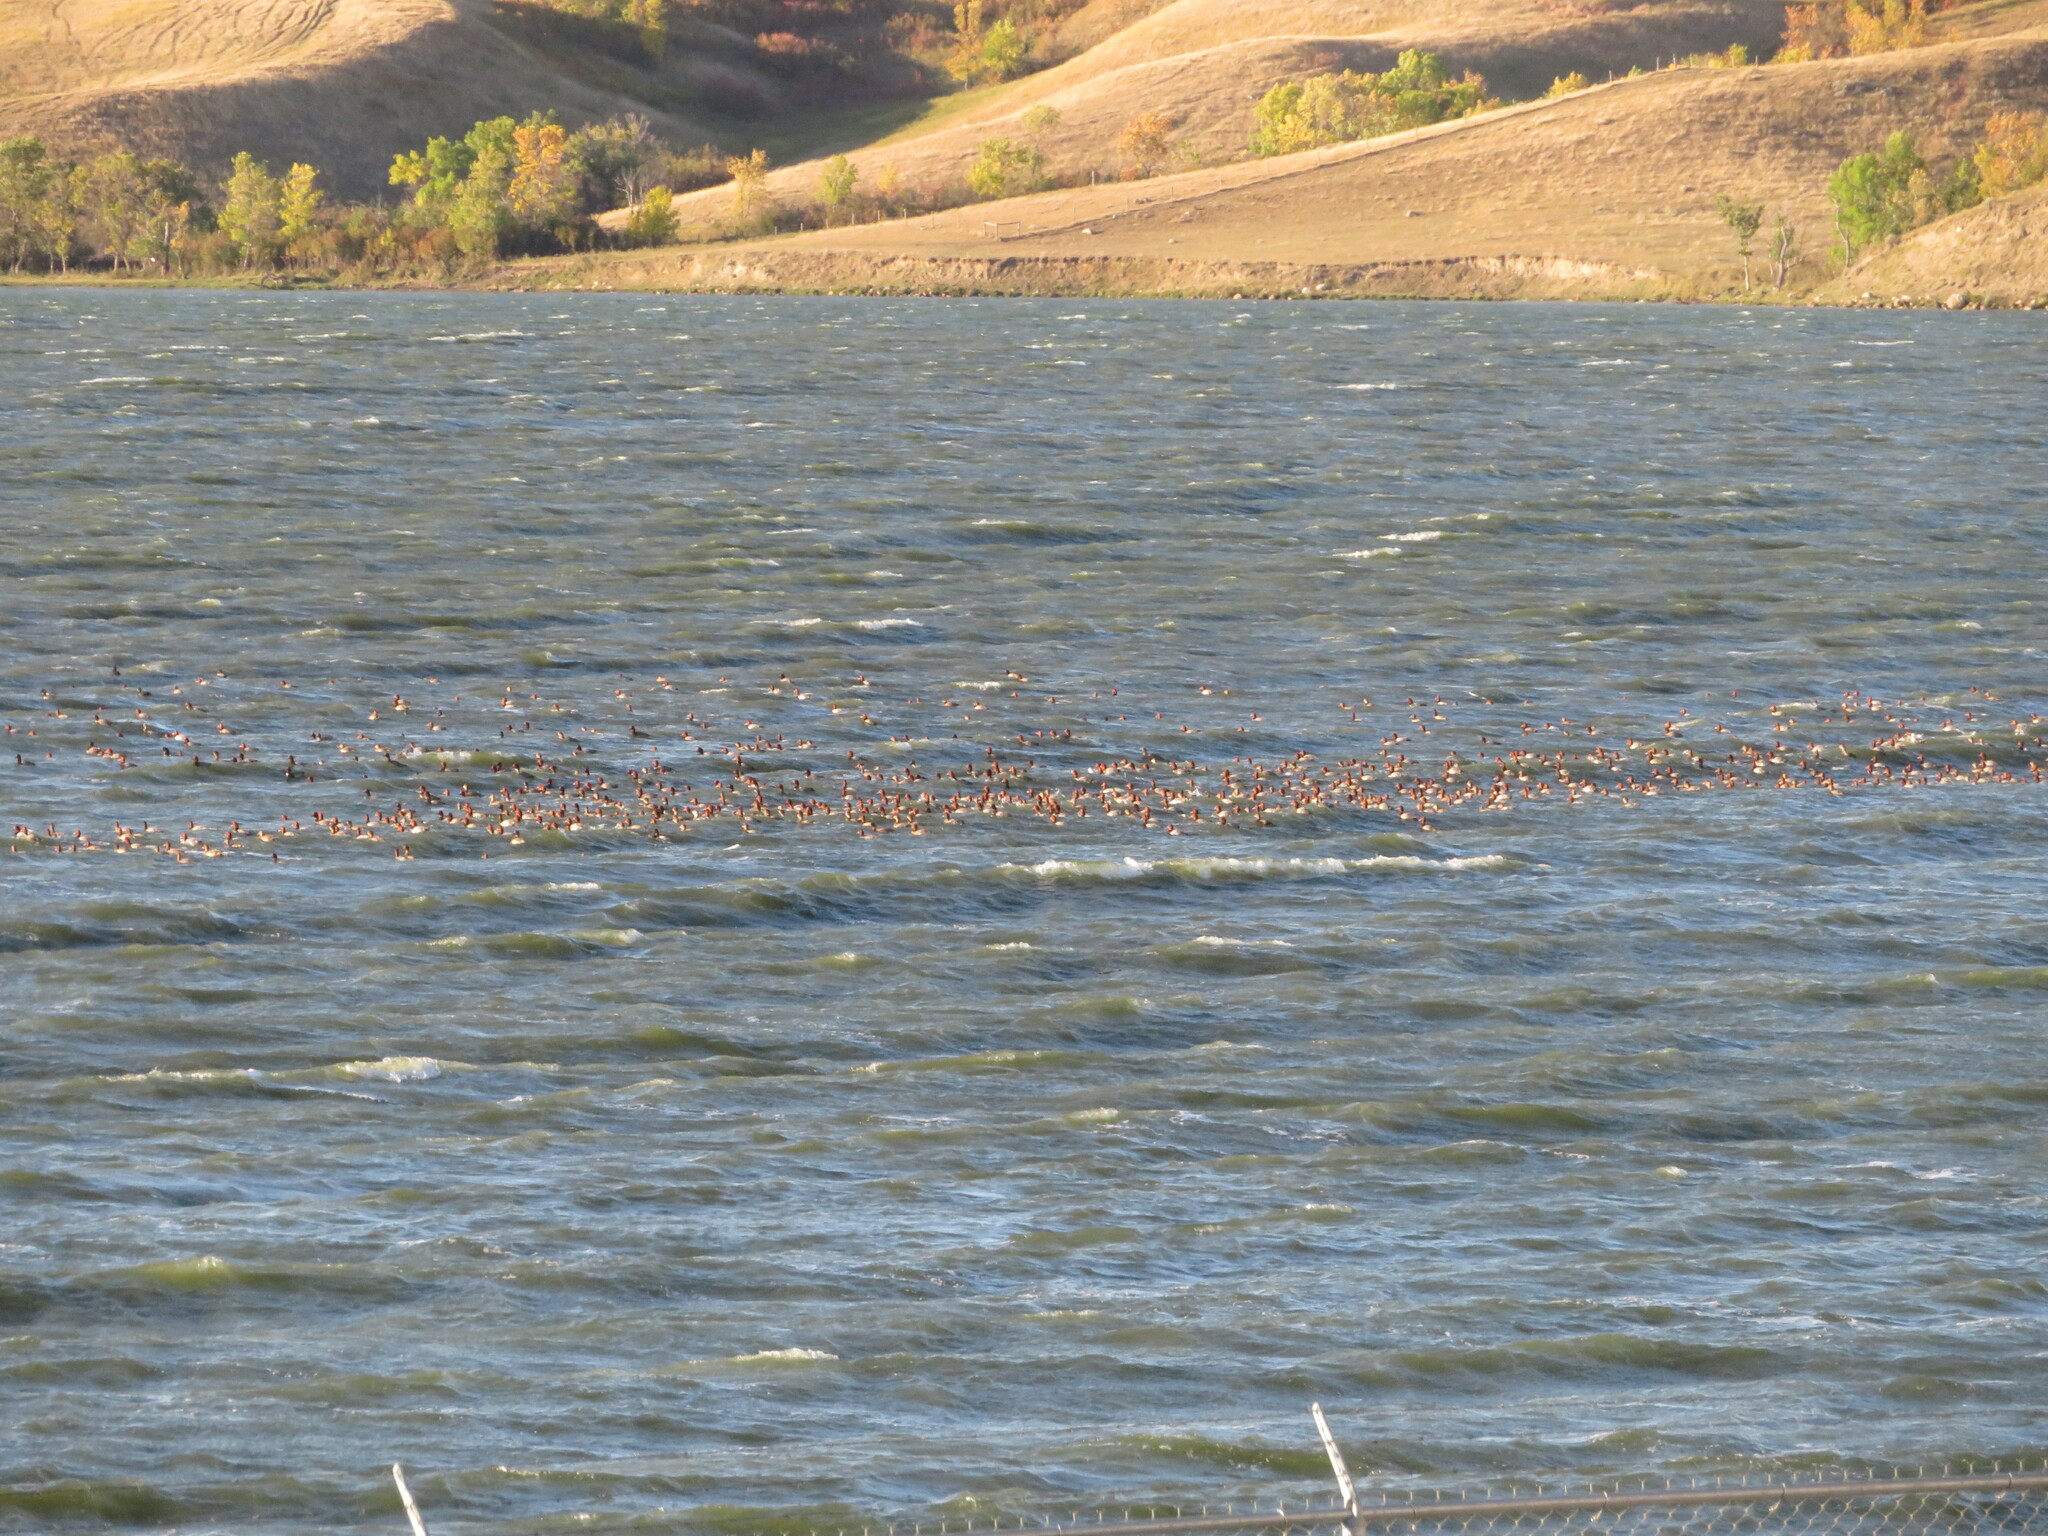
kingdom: Animalia
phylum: Chordata
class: Aves
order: Anseriformes
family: Anatidae
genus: Aythya
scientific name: Aythya americana
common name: Redhead
